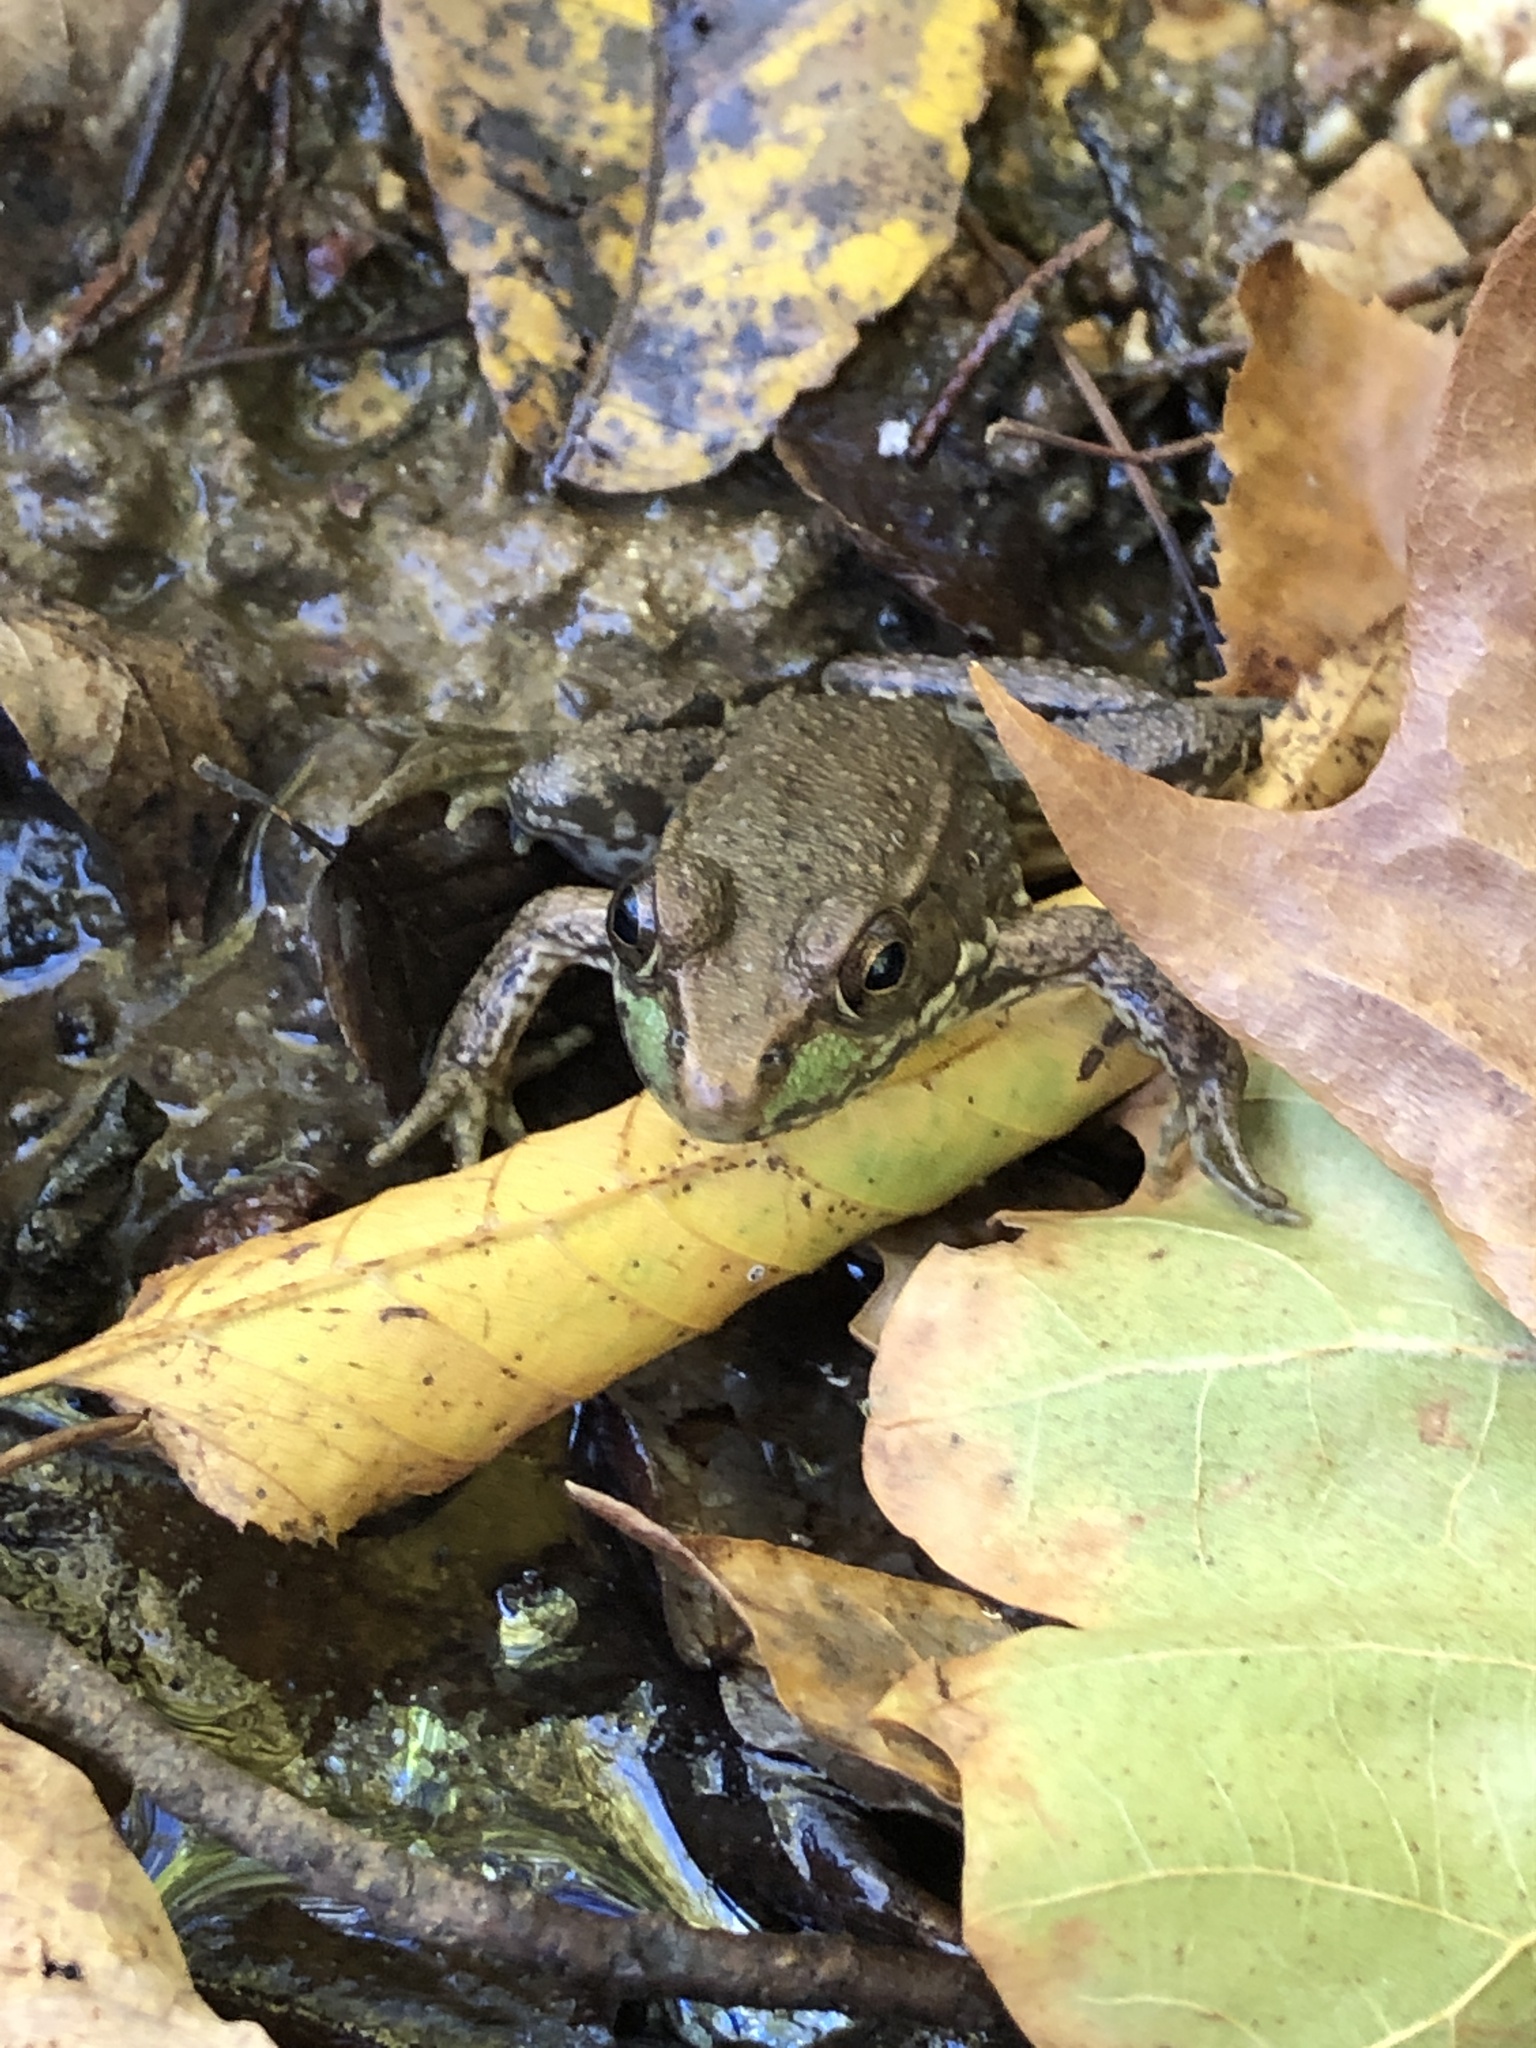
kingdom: Animalia
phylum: Chordata
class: Amphibia
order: Anura
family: Ranidae
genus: Lithobates
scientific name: Lithobates clamitans
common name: Green frog
